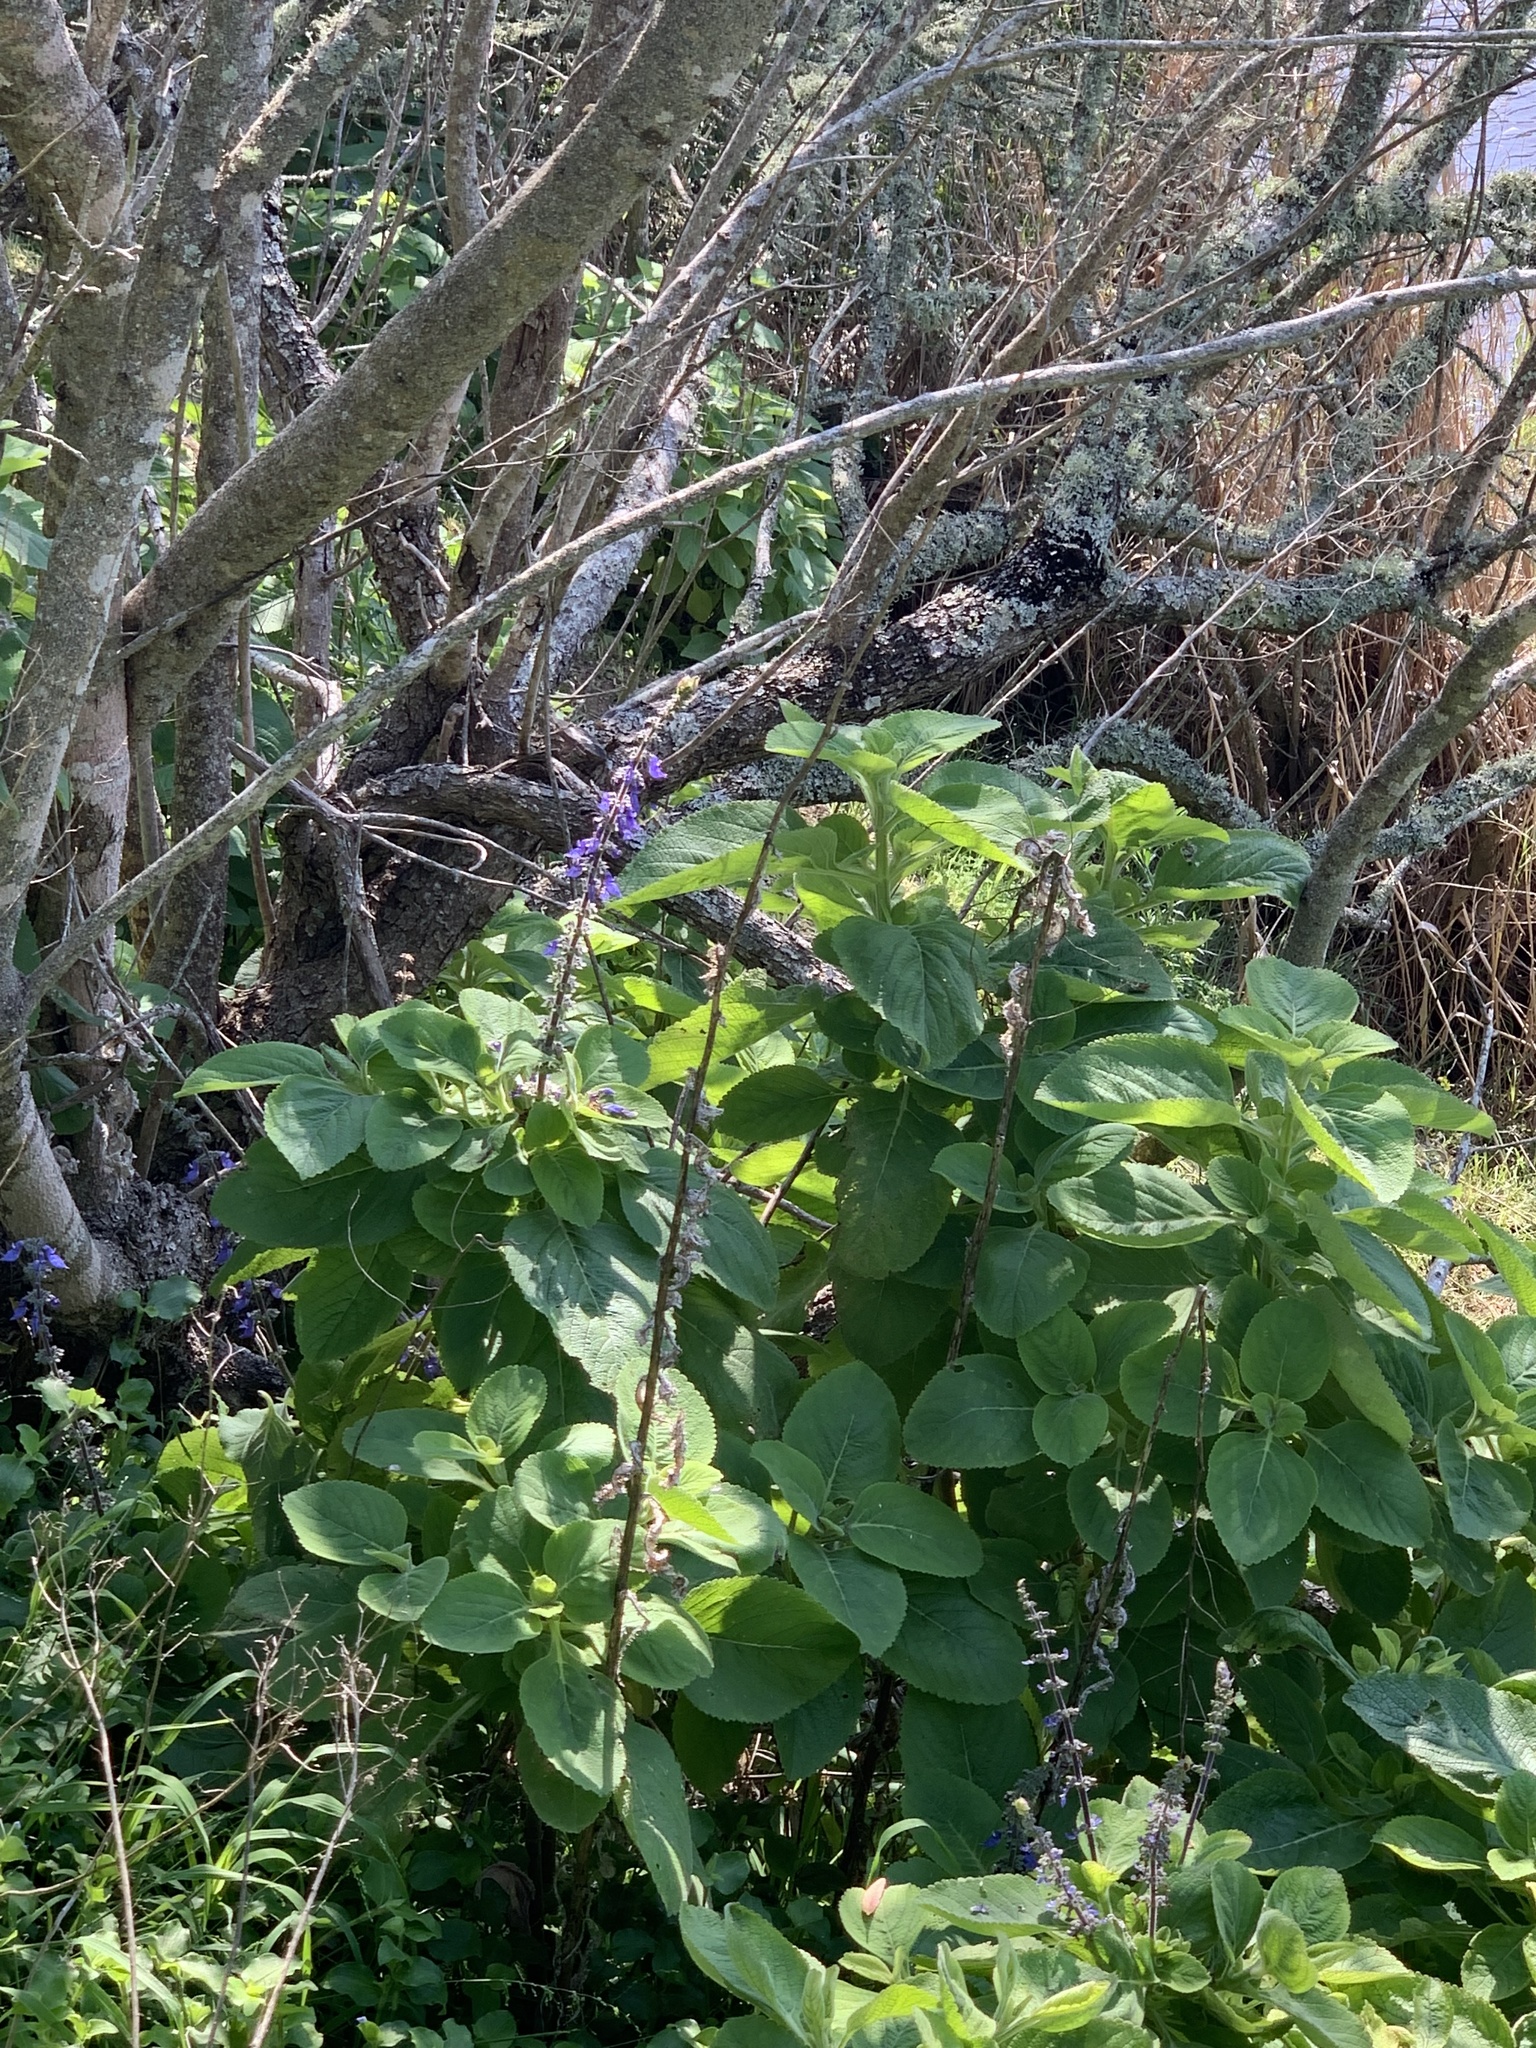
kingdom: Plantae
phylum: Tracheophyta
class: Magnoliopsida
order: Lamiales
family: Lamiaceae
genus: Coleus
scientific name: Coleus barbatus
